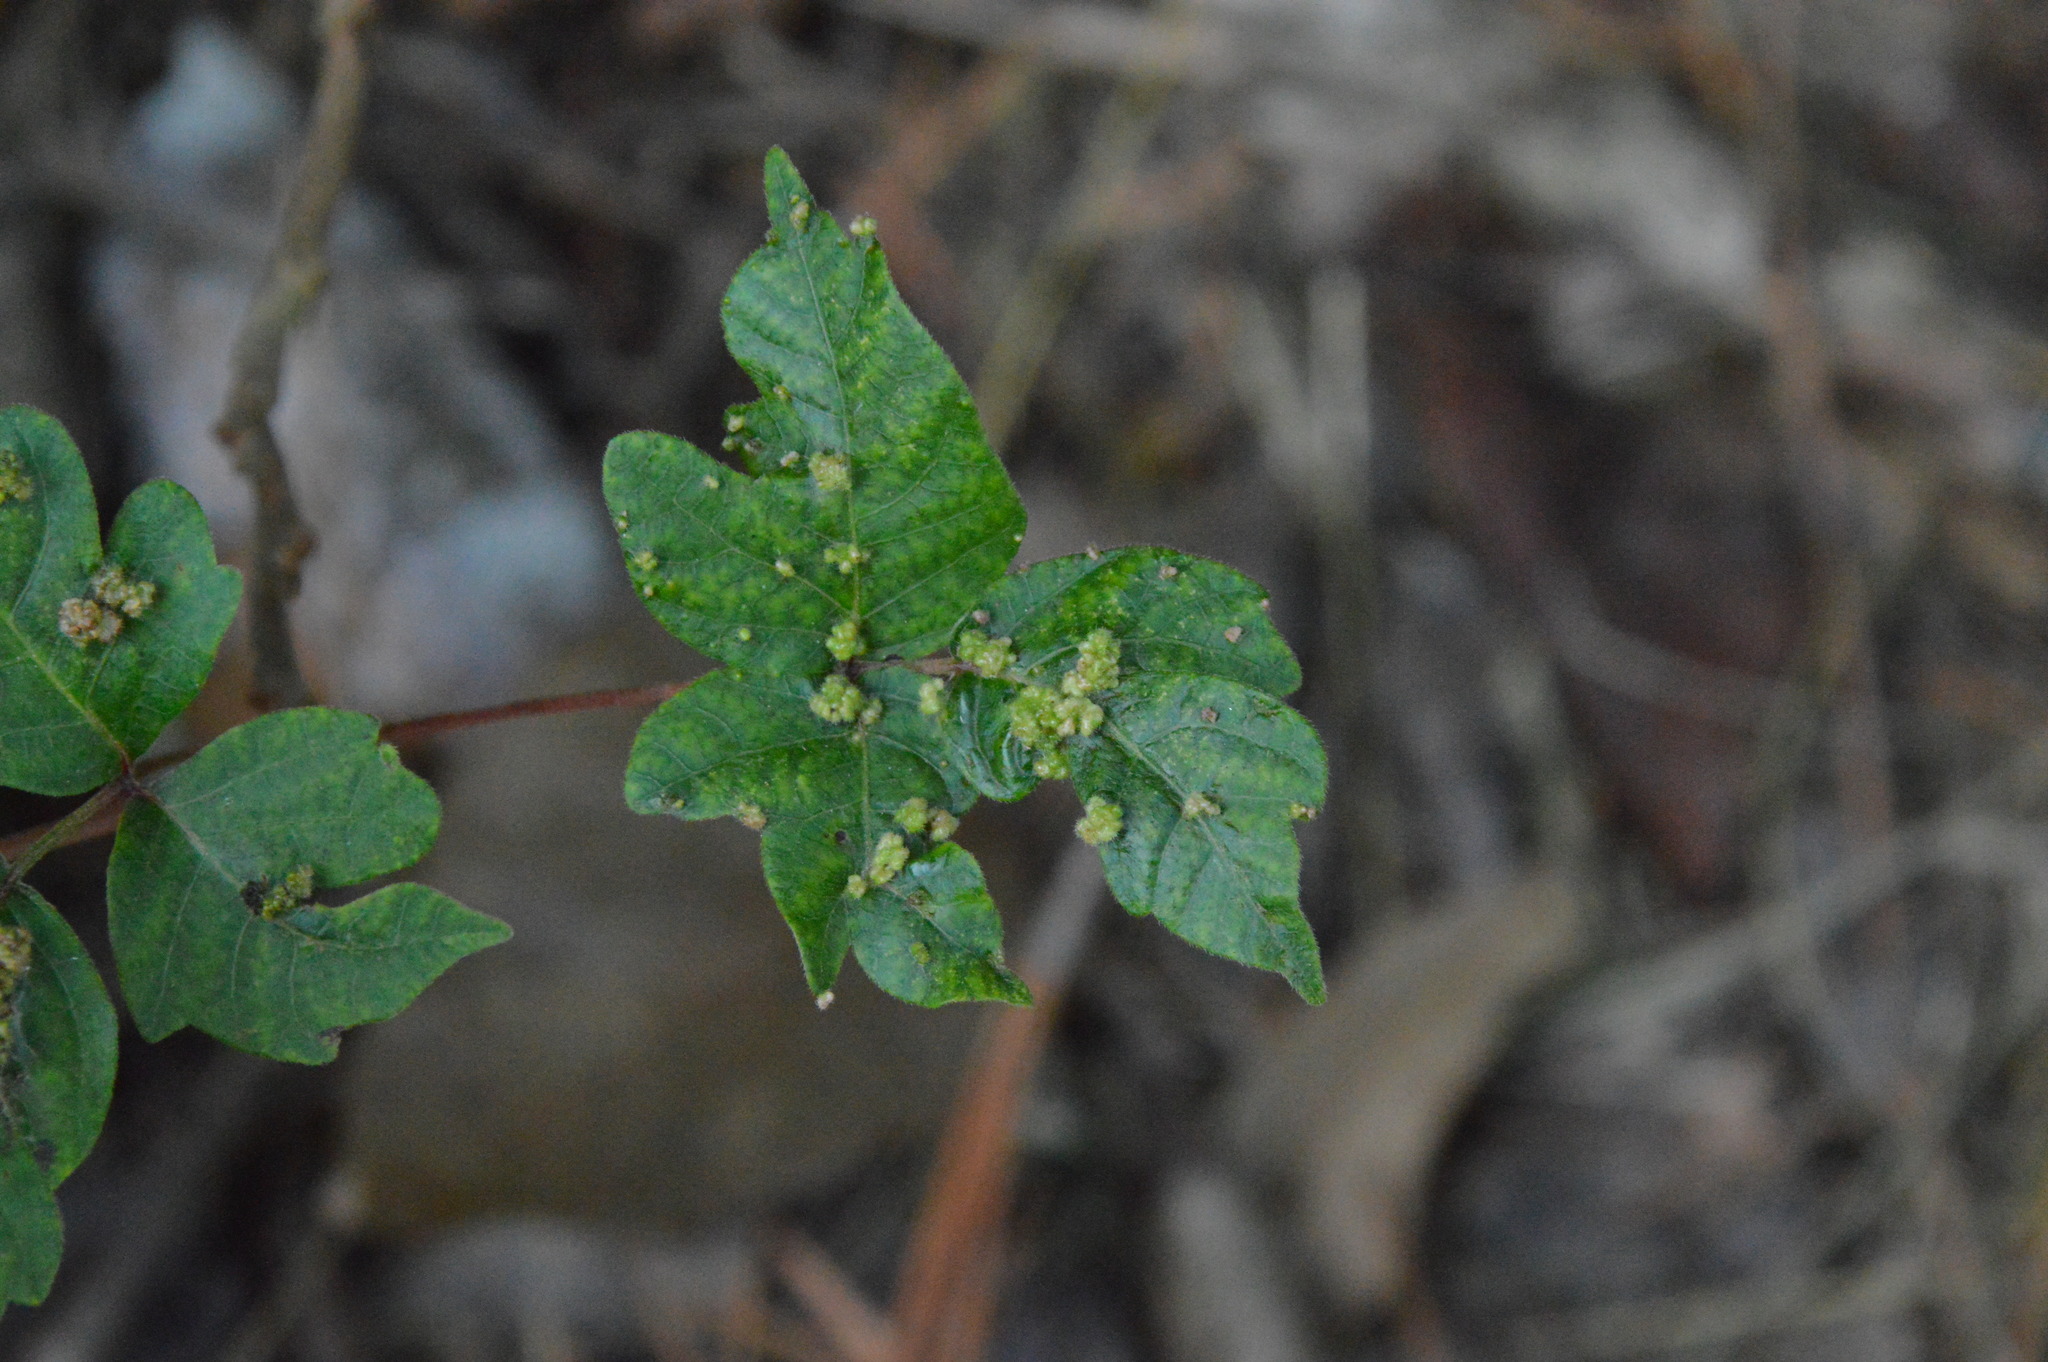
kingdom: Animalia
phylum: Arthropoda
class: Arachnida
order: Trombidiformes
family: Eriophyidae
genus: Aculops
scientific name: Aculops
